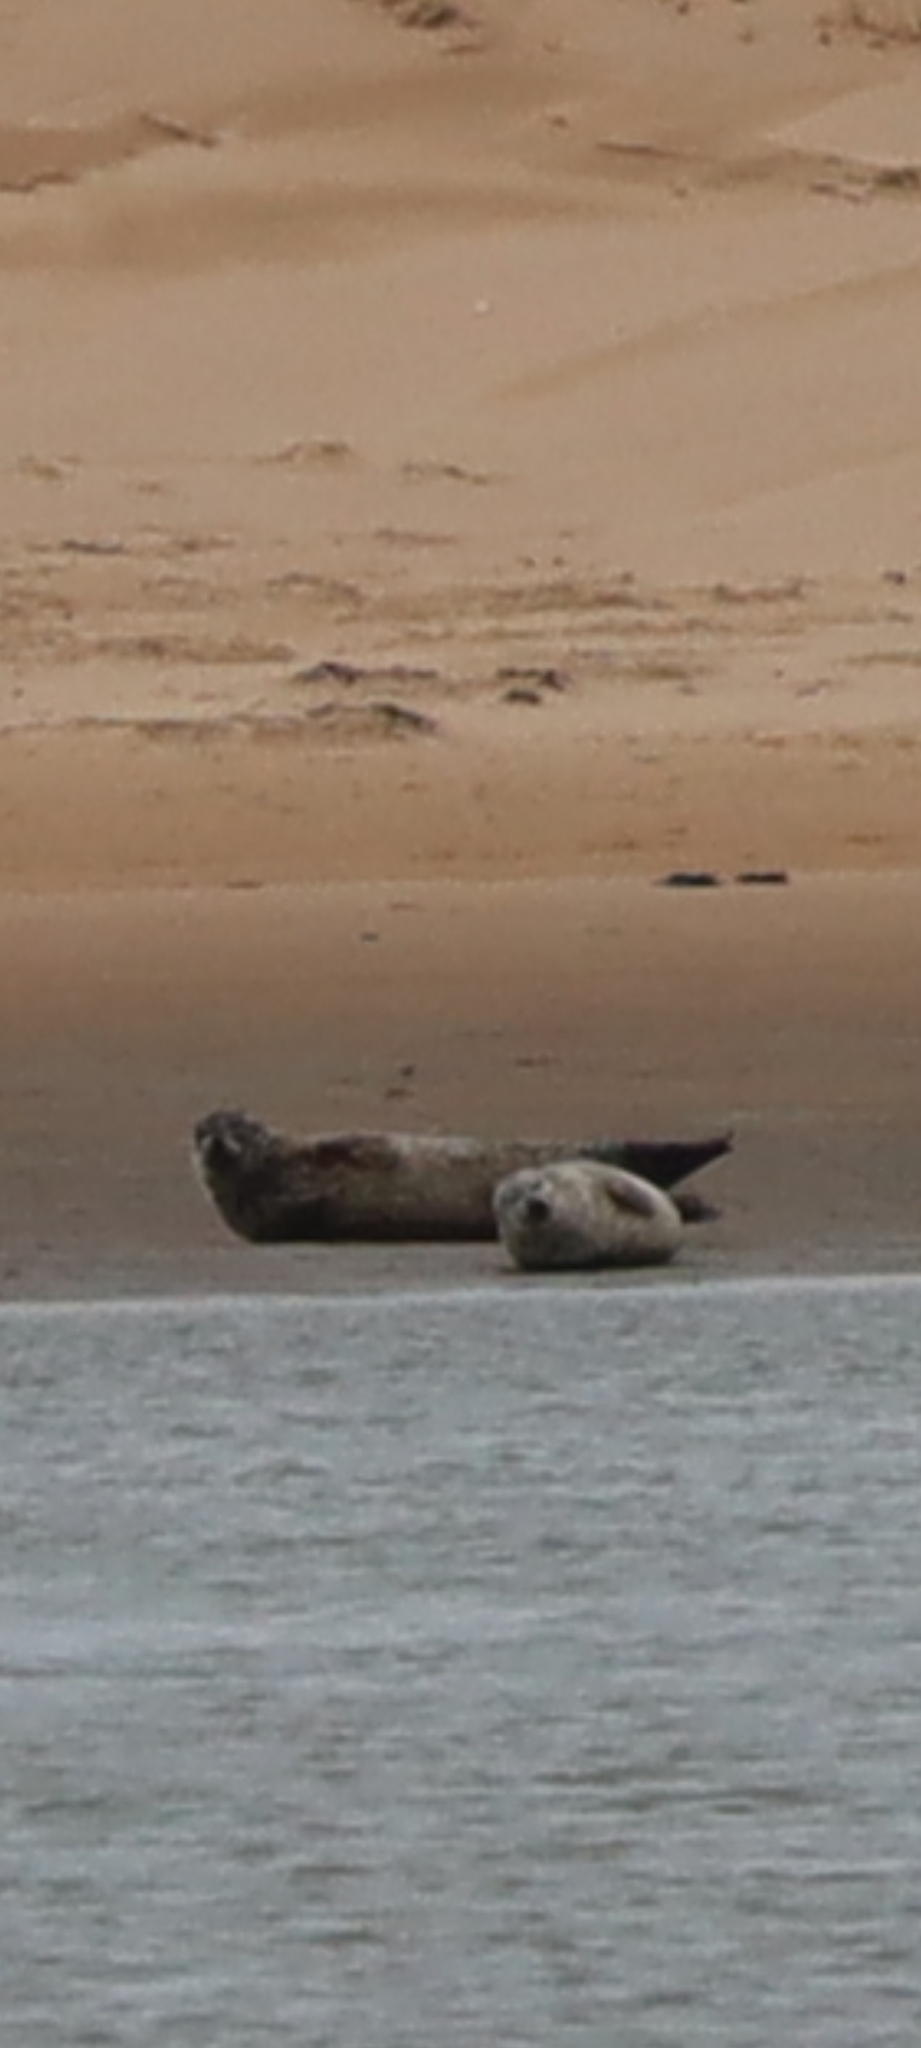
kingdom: Animalia
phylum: Chordata
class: Mammalia
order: Carnivora
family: Phocidae
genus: Phoca
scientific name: Phoca vitulina
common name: Harbor seal
